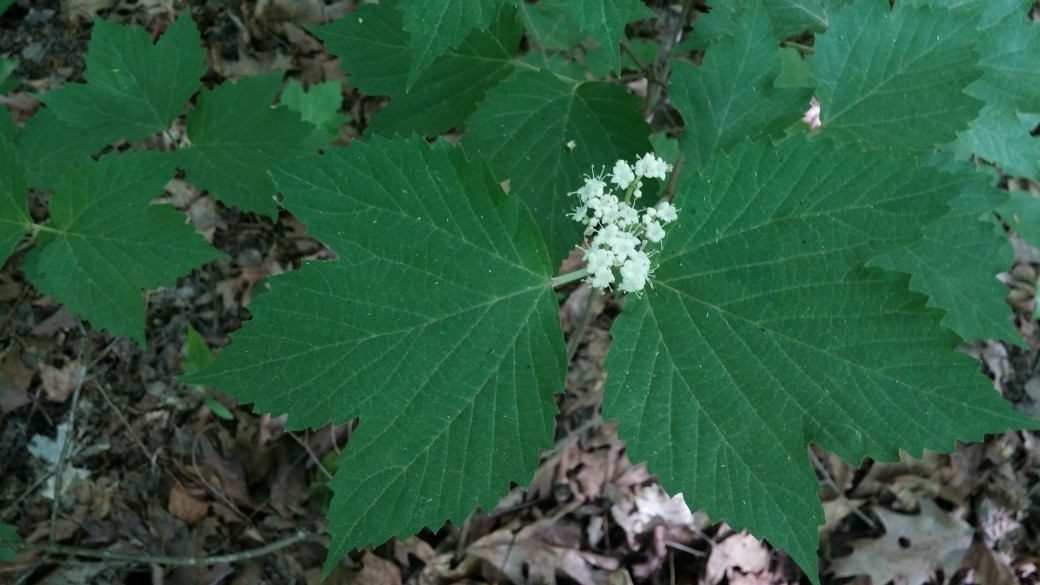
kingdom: Plantae
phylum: Tracheophyta
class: Magnoliopsida
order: Dipsacales
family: Viburnaceae
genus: Viburnum
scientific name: Viburnum acerifolium
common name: Dockmackie
